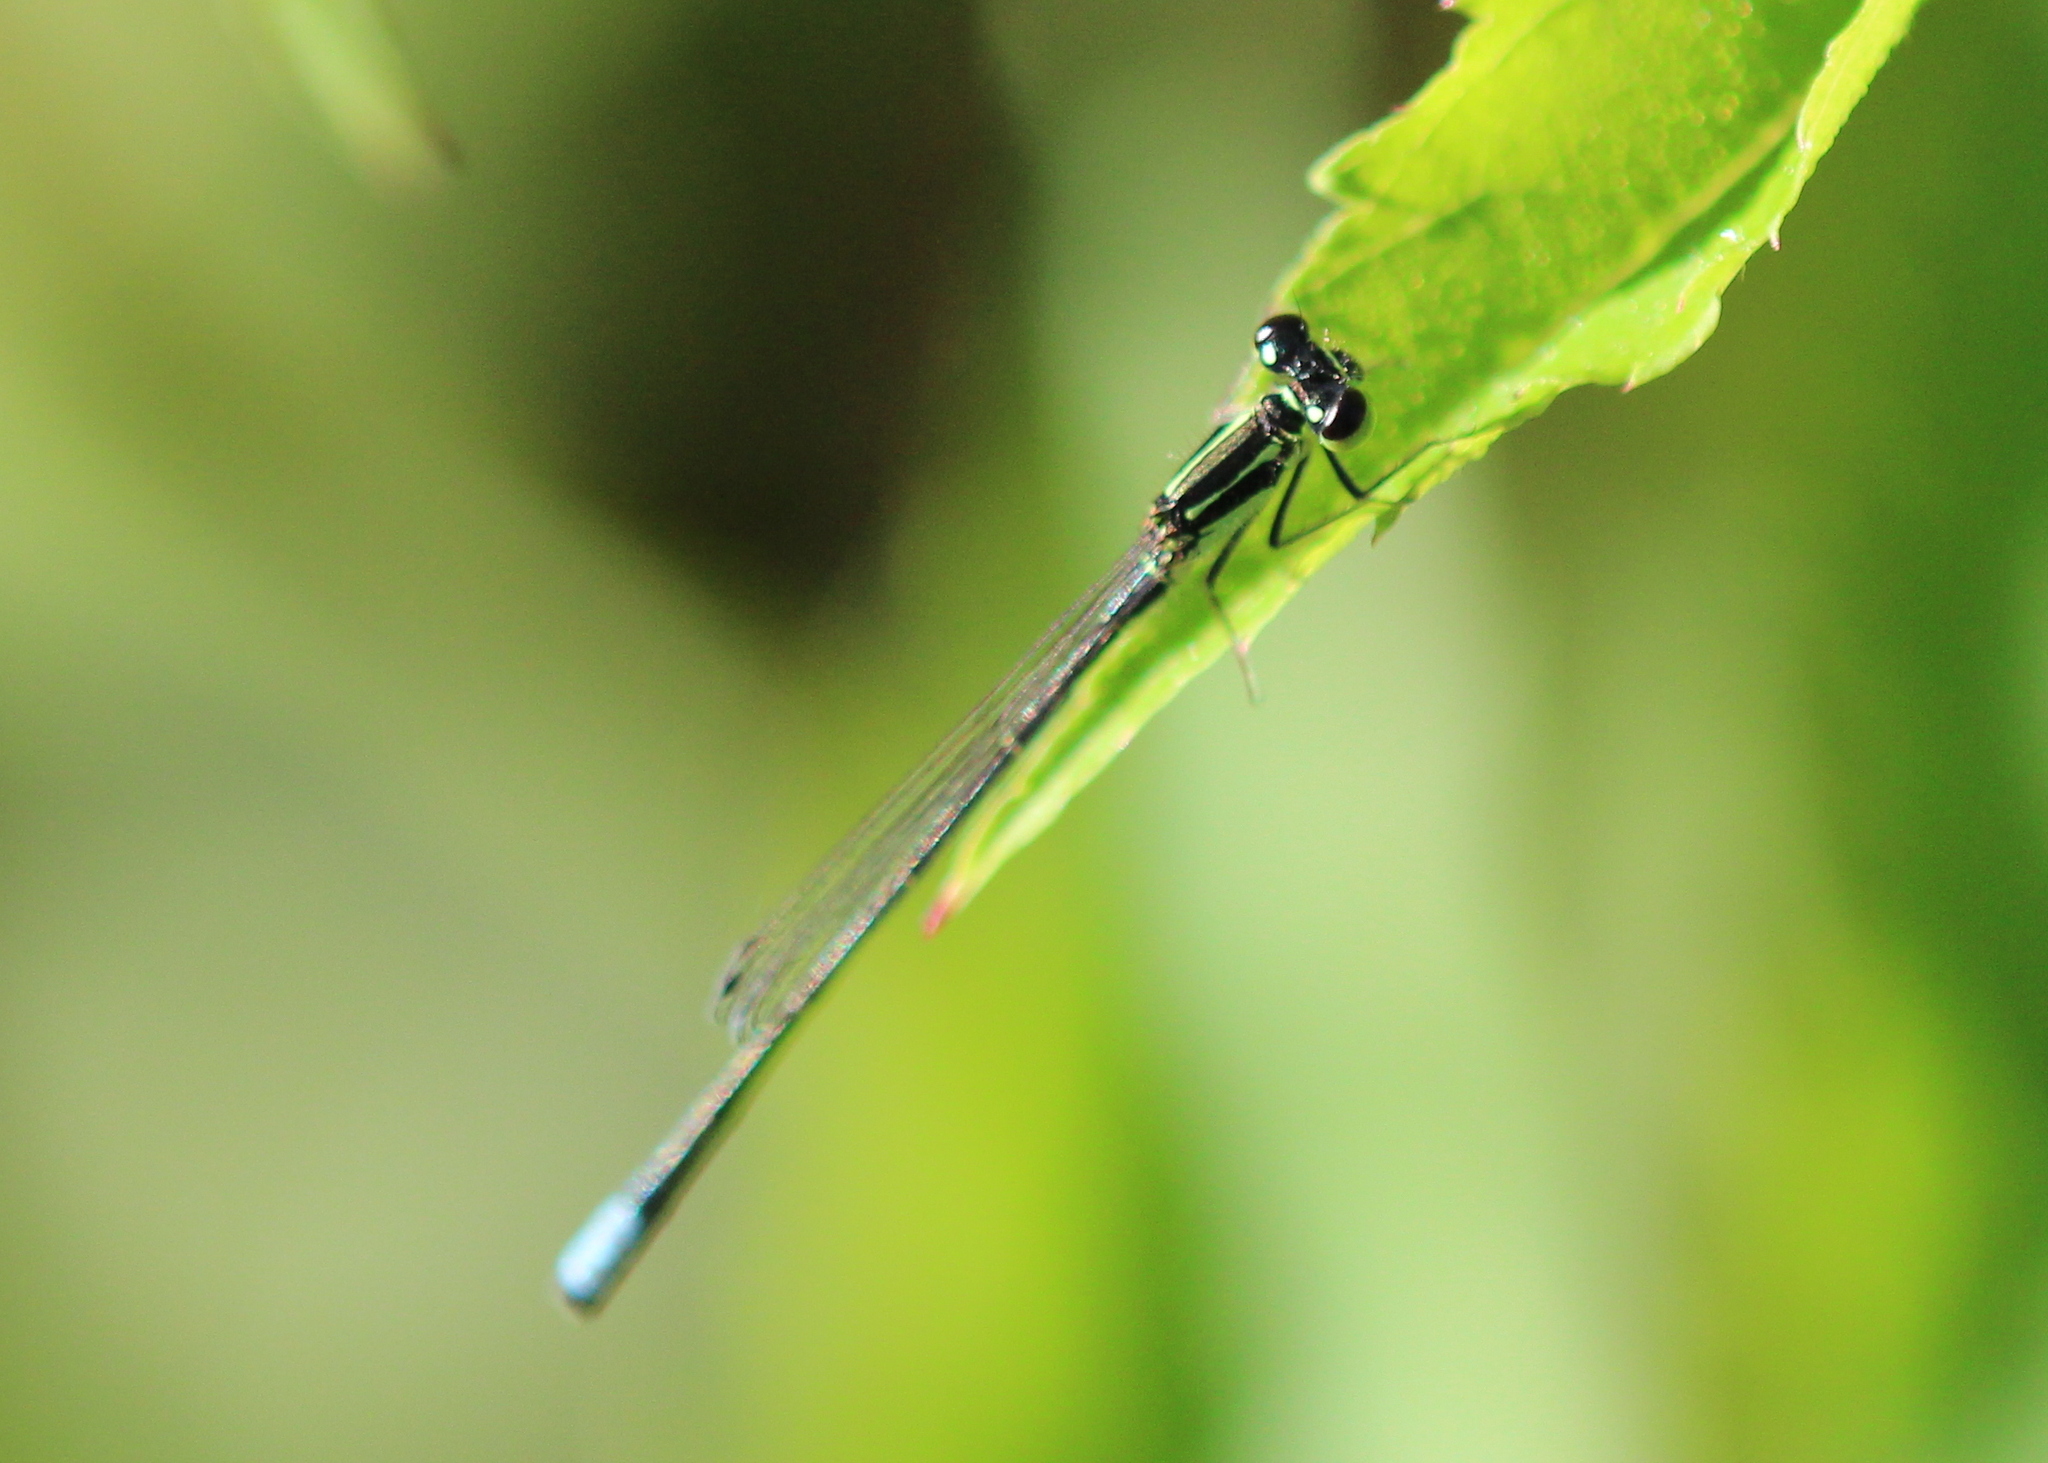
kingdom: Animalia
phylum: Arthropoda
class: Insecta
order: Odonata
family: Coenagrionidae
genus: Ischnura
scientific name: Ischnura verticalis
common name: Eastern forktail
